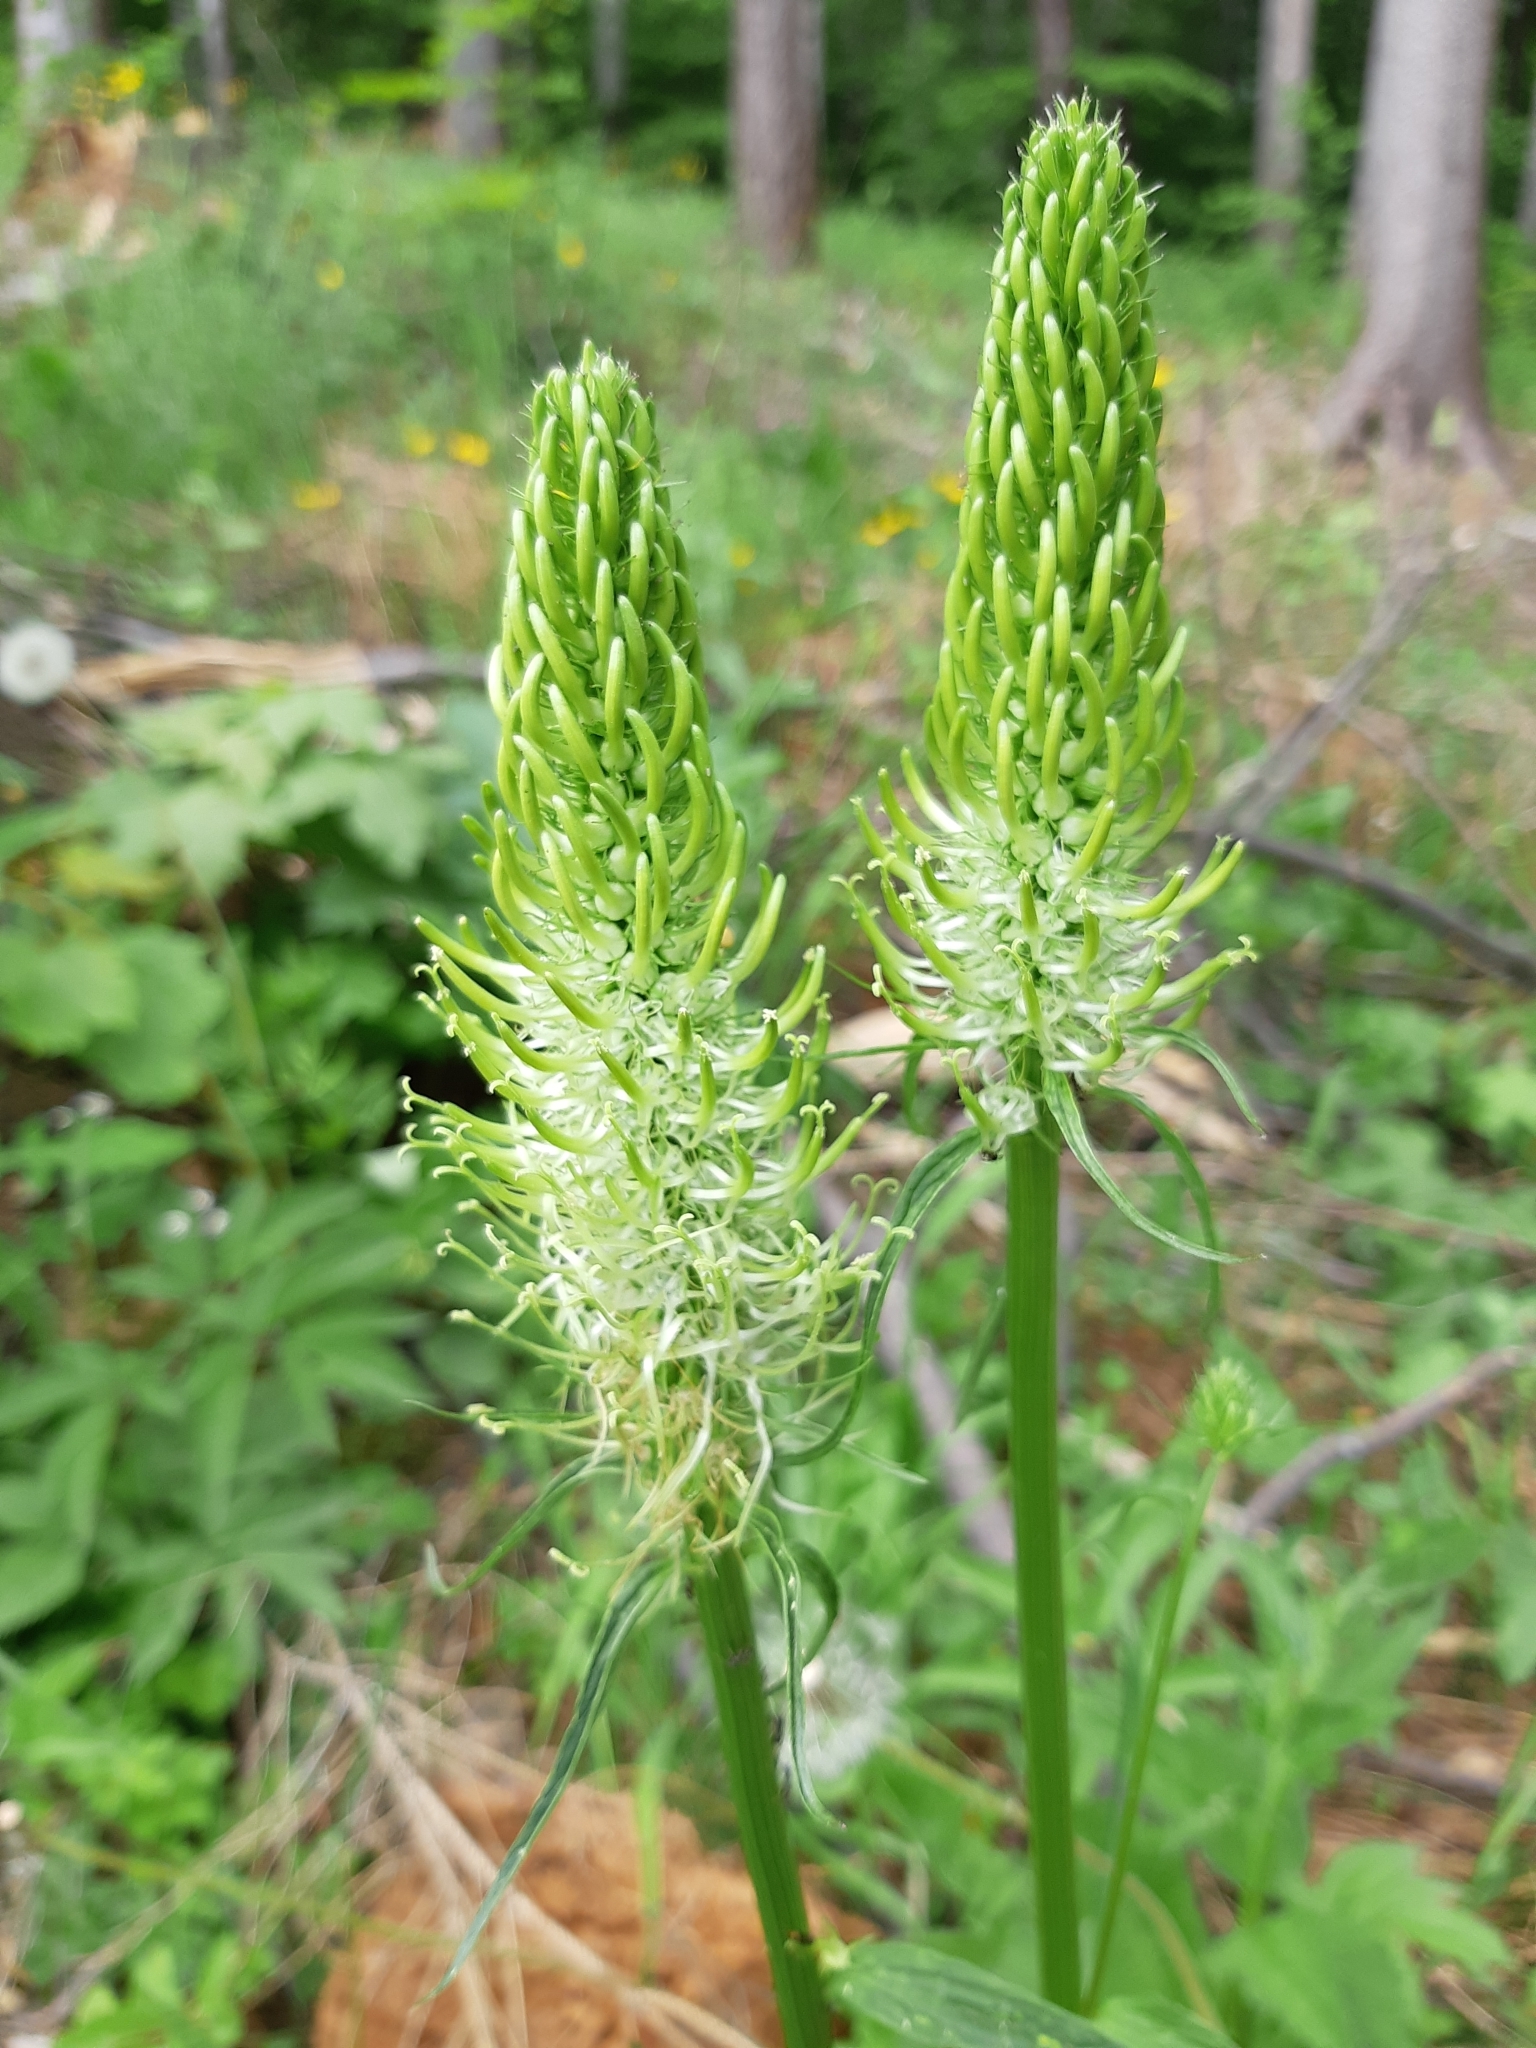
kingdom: Plantae
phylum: Tracheophyta
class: Magnoliopsida
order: Asterales
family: Campanulaceae
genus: Phyteuma
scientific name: Phyteuma spicatum
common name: Spiked rampion
